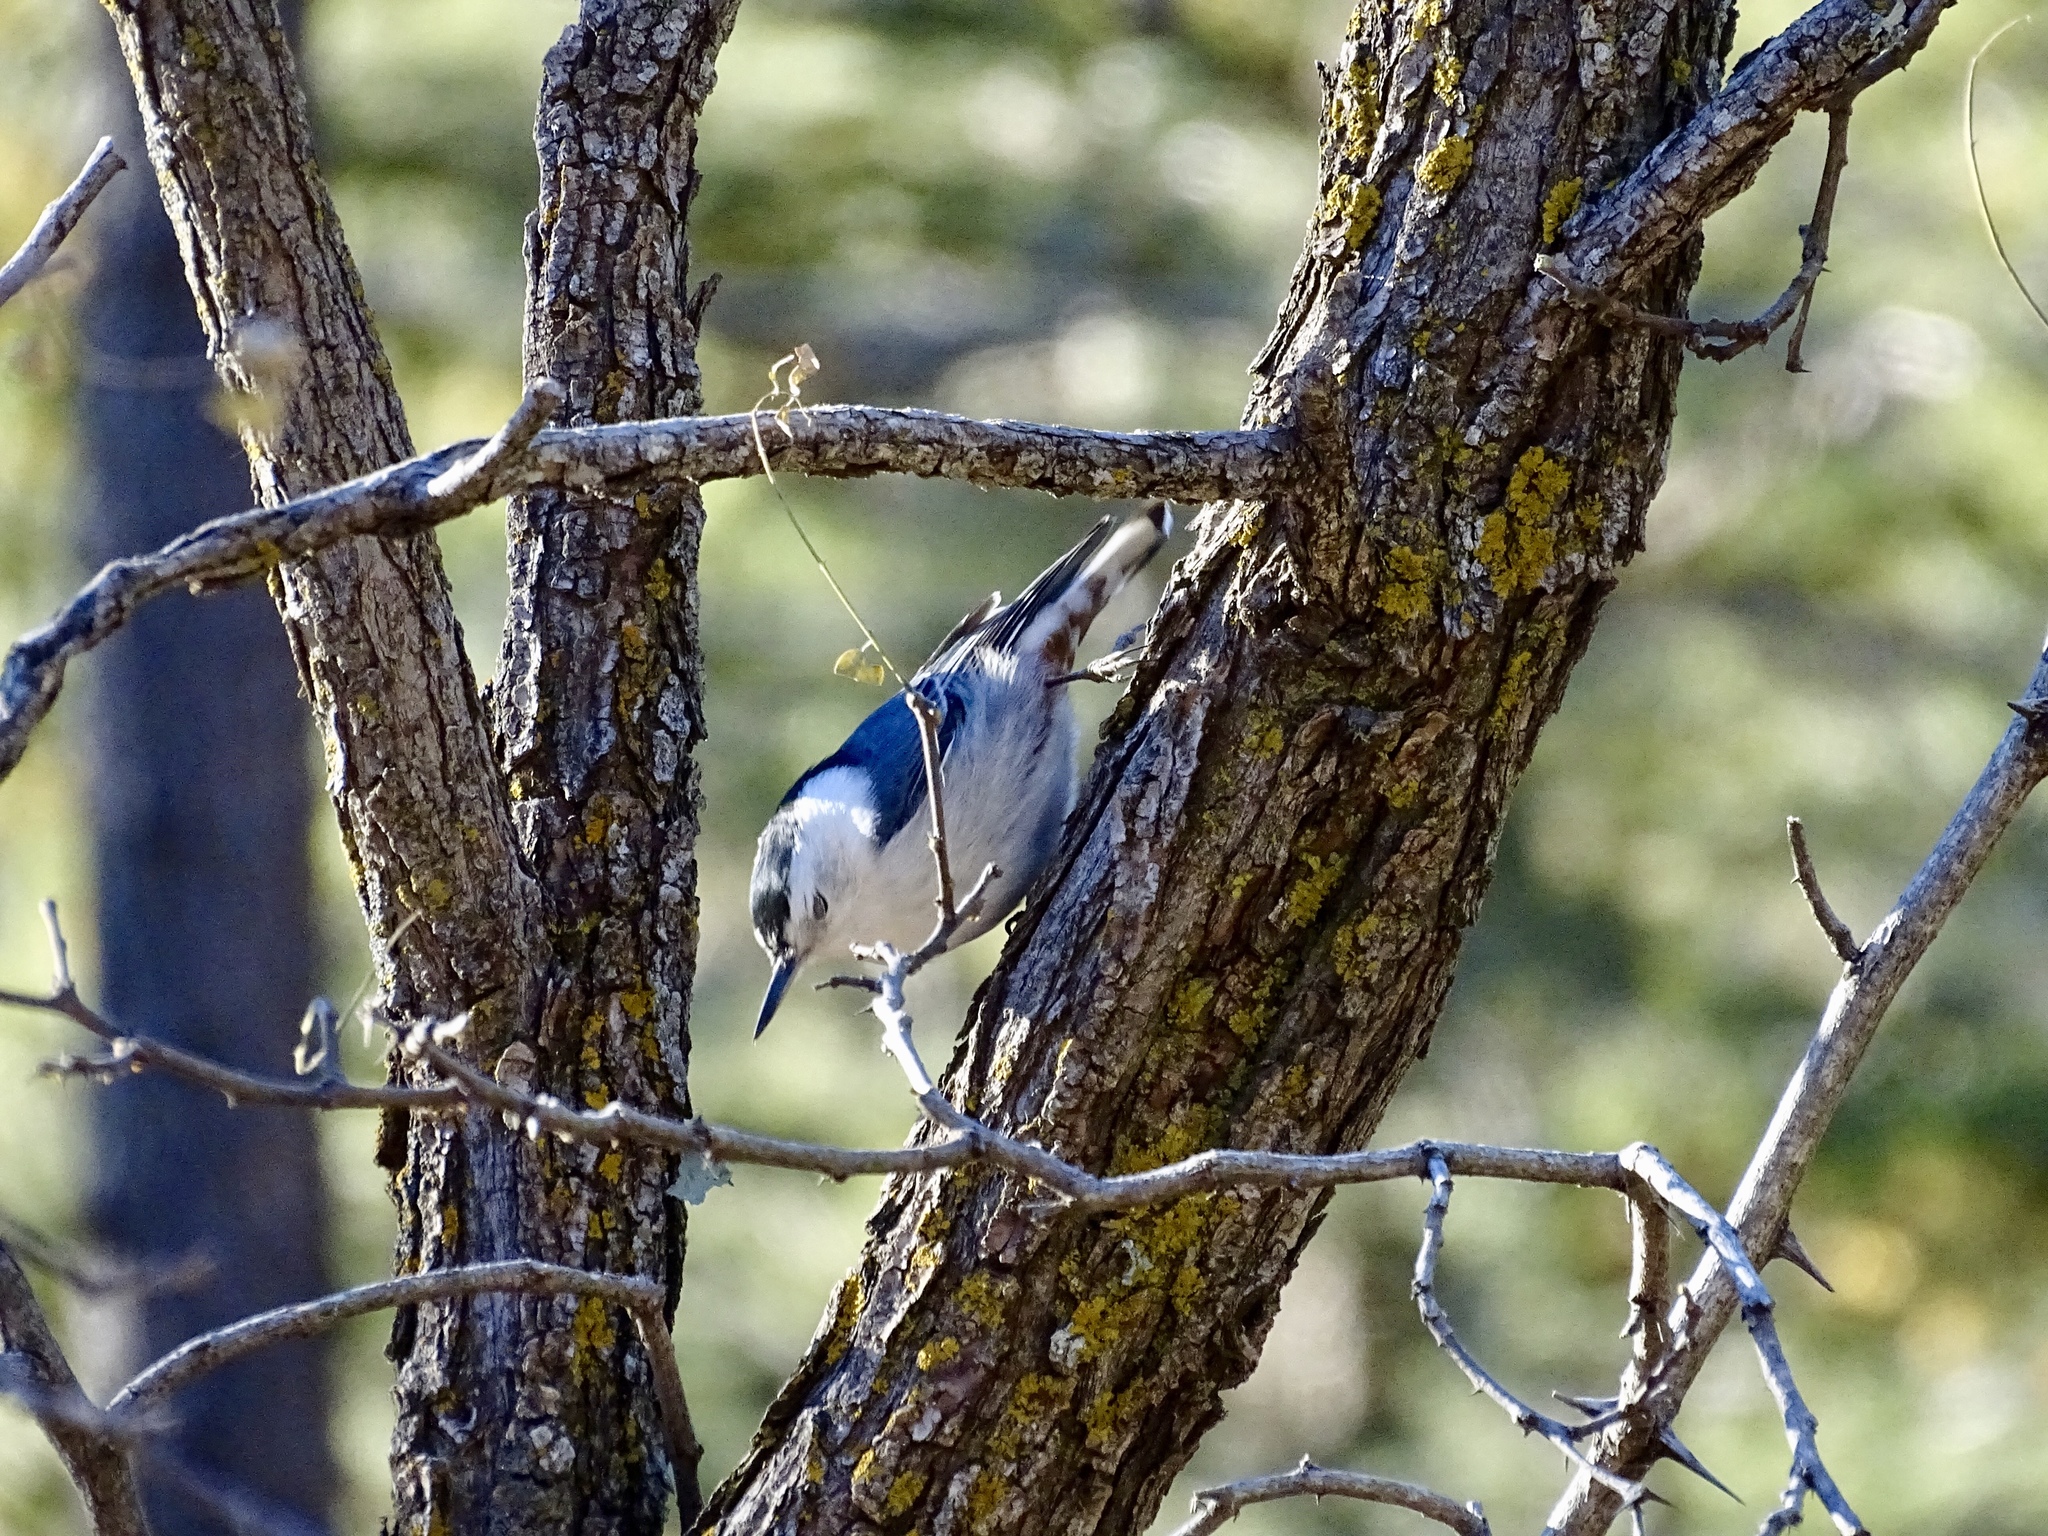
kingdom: Animalia
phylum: Chordata
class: Aves
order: Passeriformes
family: Sittidae
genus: Sitta
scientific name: Sitta carolinensis
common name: White-breasted nuthatch
